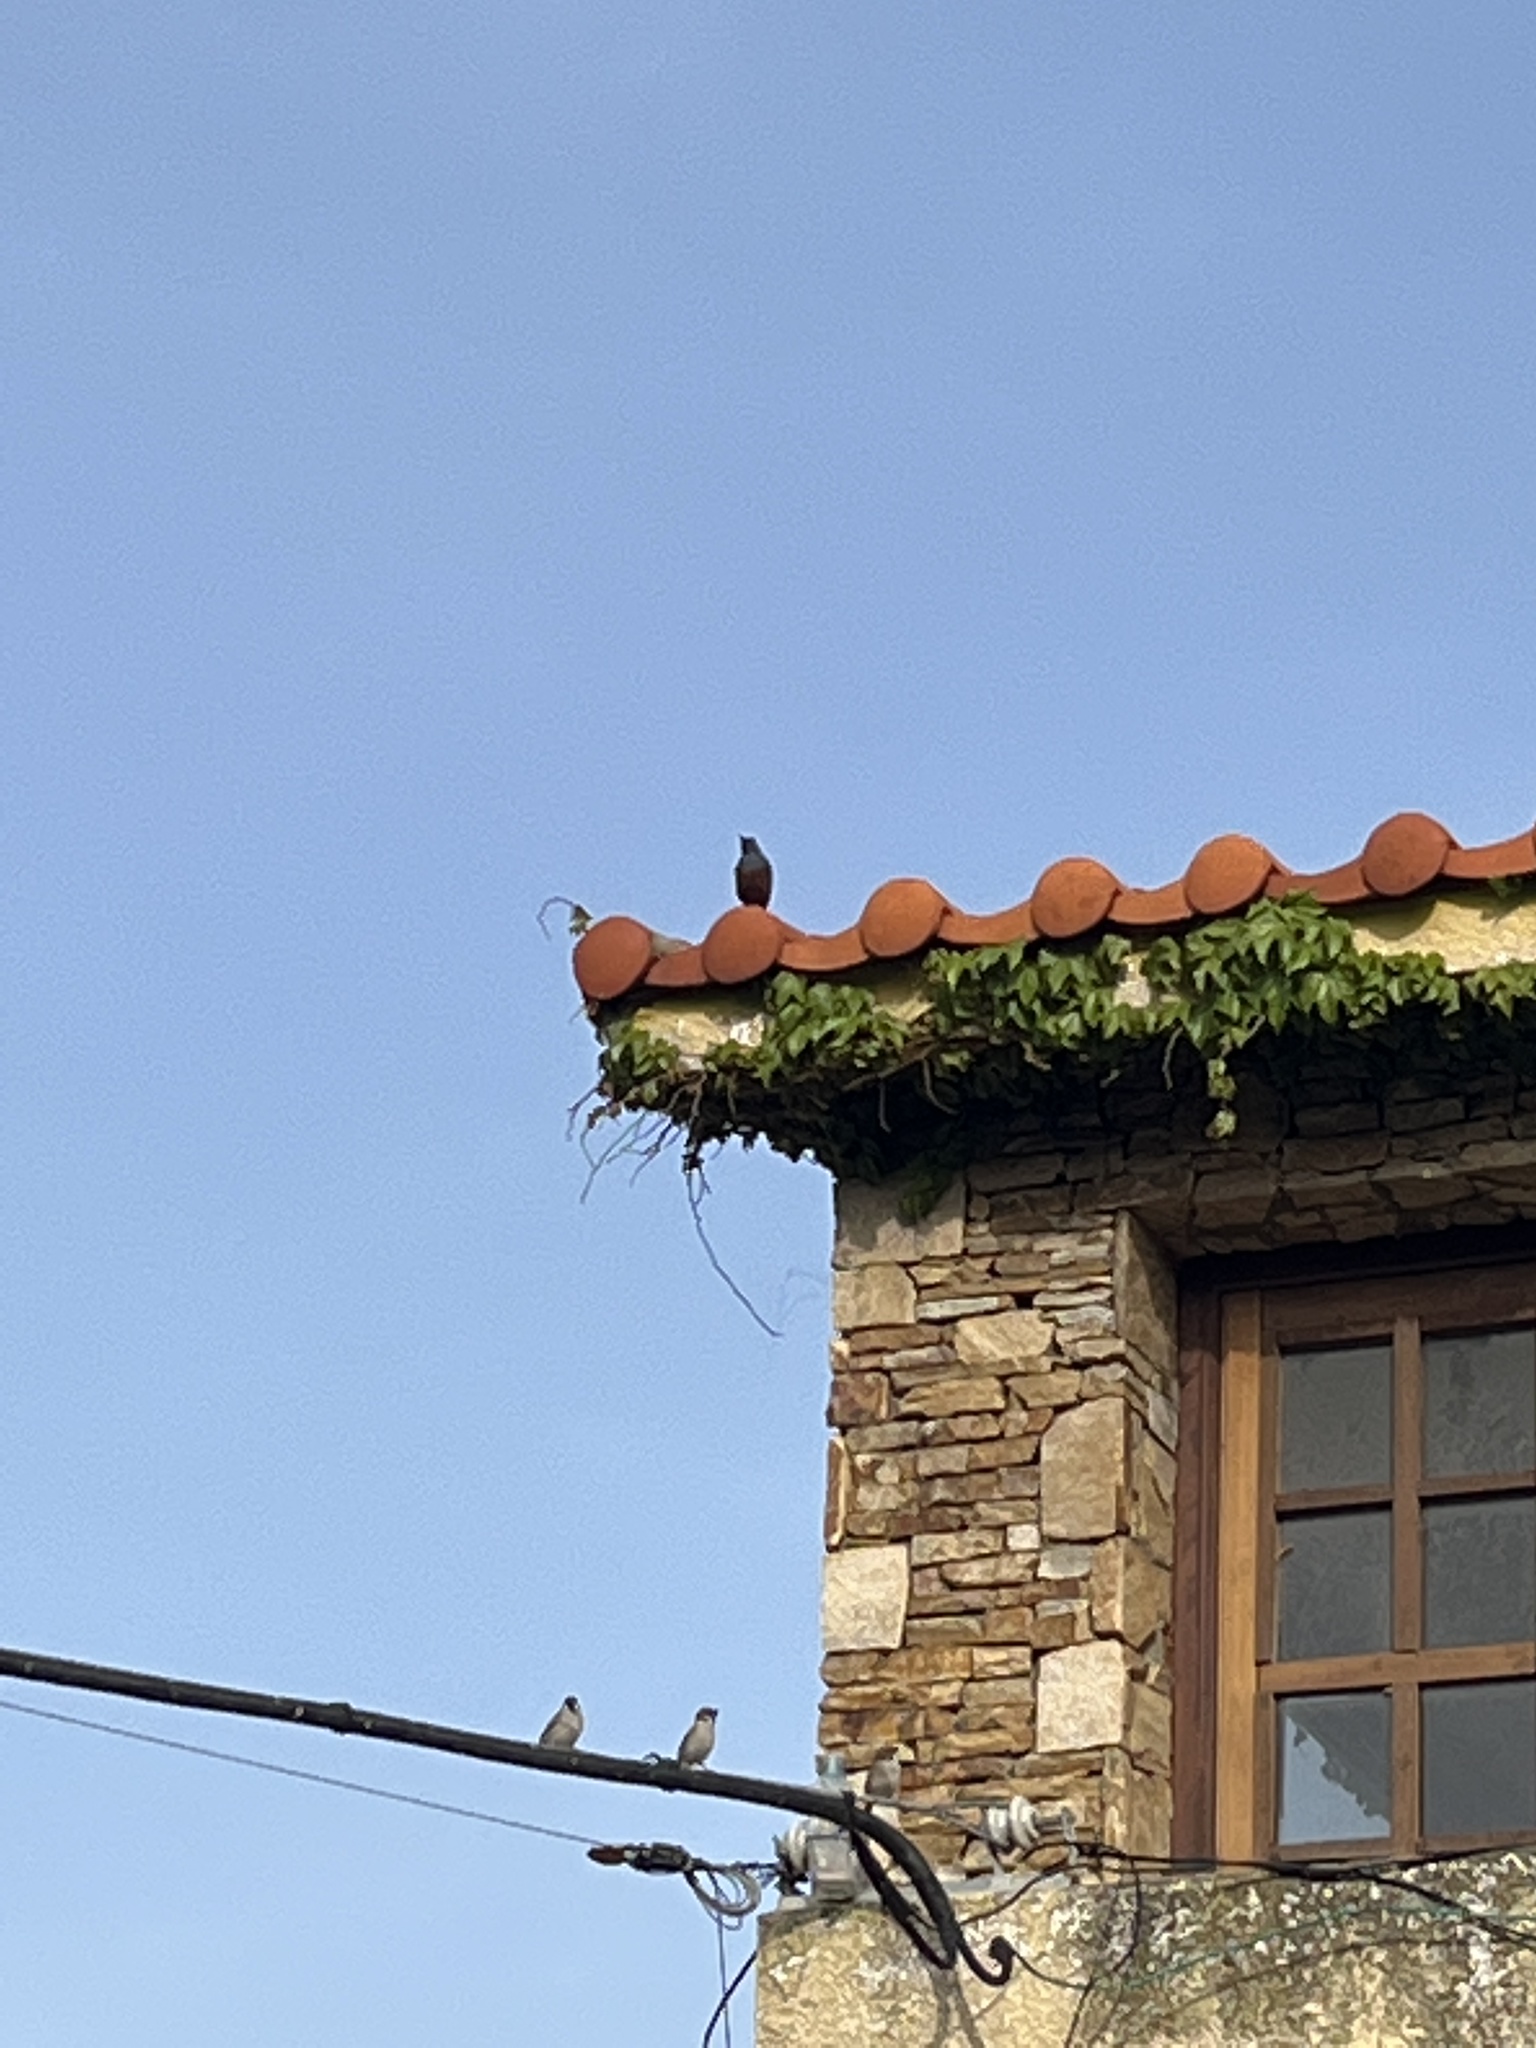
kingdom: Animalia
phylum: Chordata
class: Aves
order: Passeriformes
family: Muscicapidae
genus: Monticola
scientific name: Monticola solitarius
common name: Blue rock thrush
